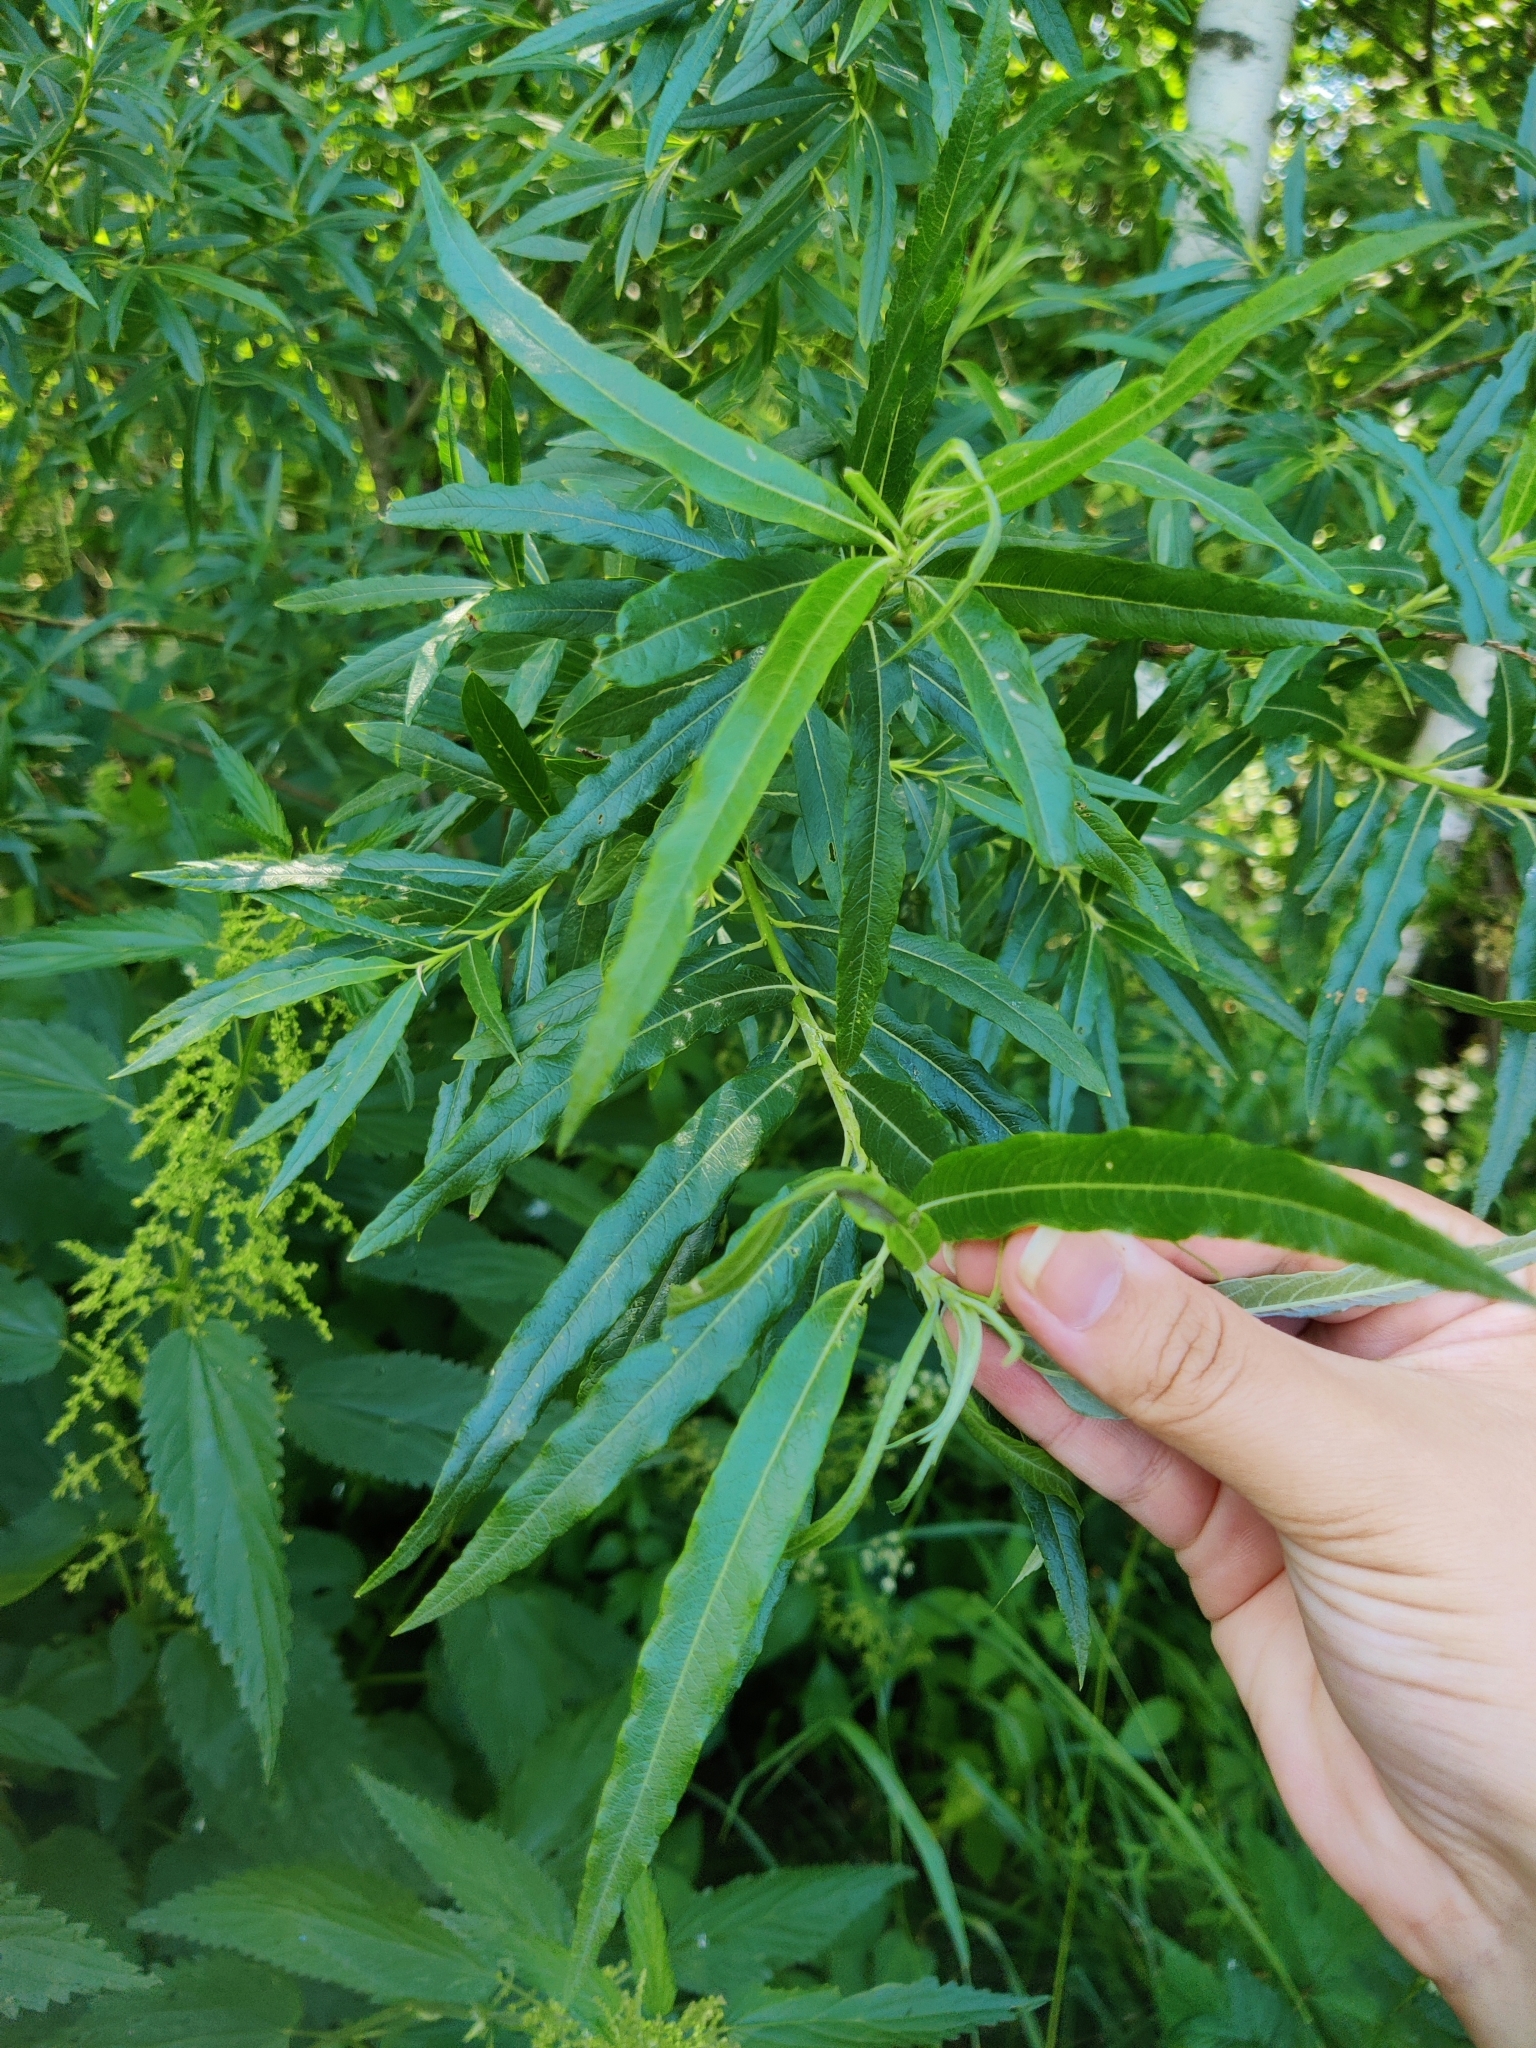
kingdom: Plantae
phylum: Tracheophyta
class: Magnoliopsida
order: Malpighiales
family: Salicaceae
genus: Salix
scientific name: Salix viminalis
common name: Osier
